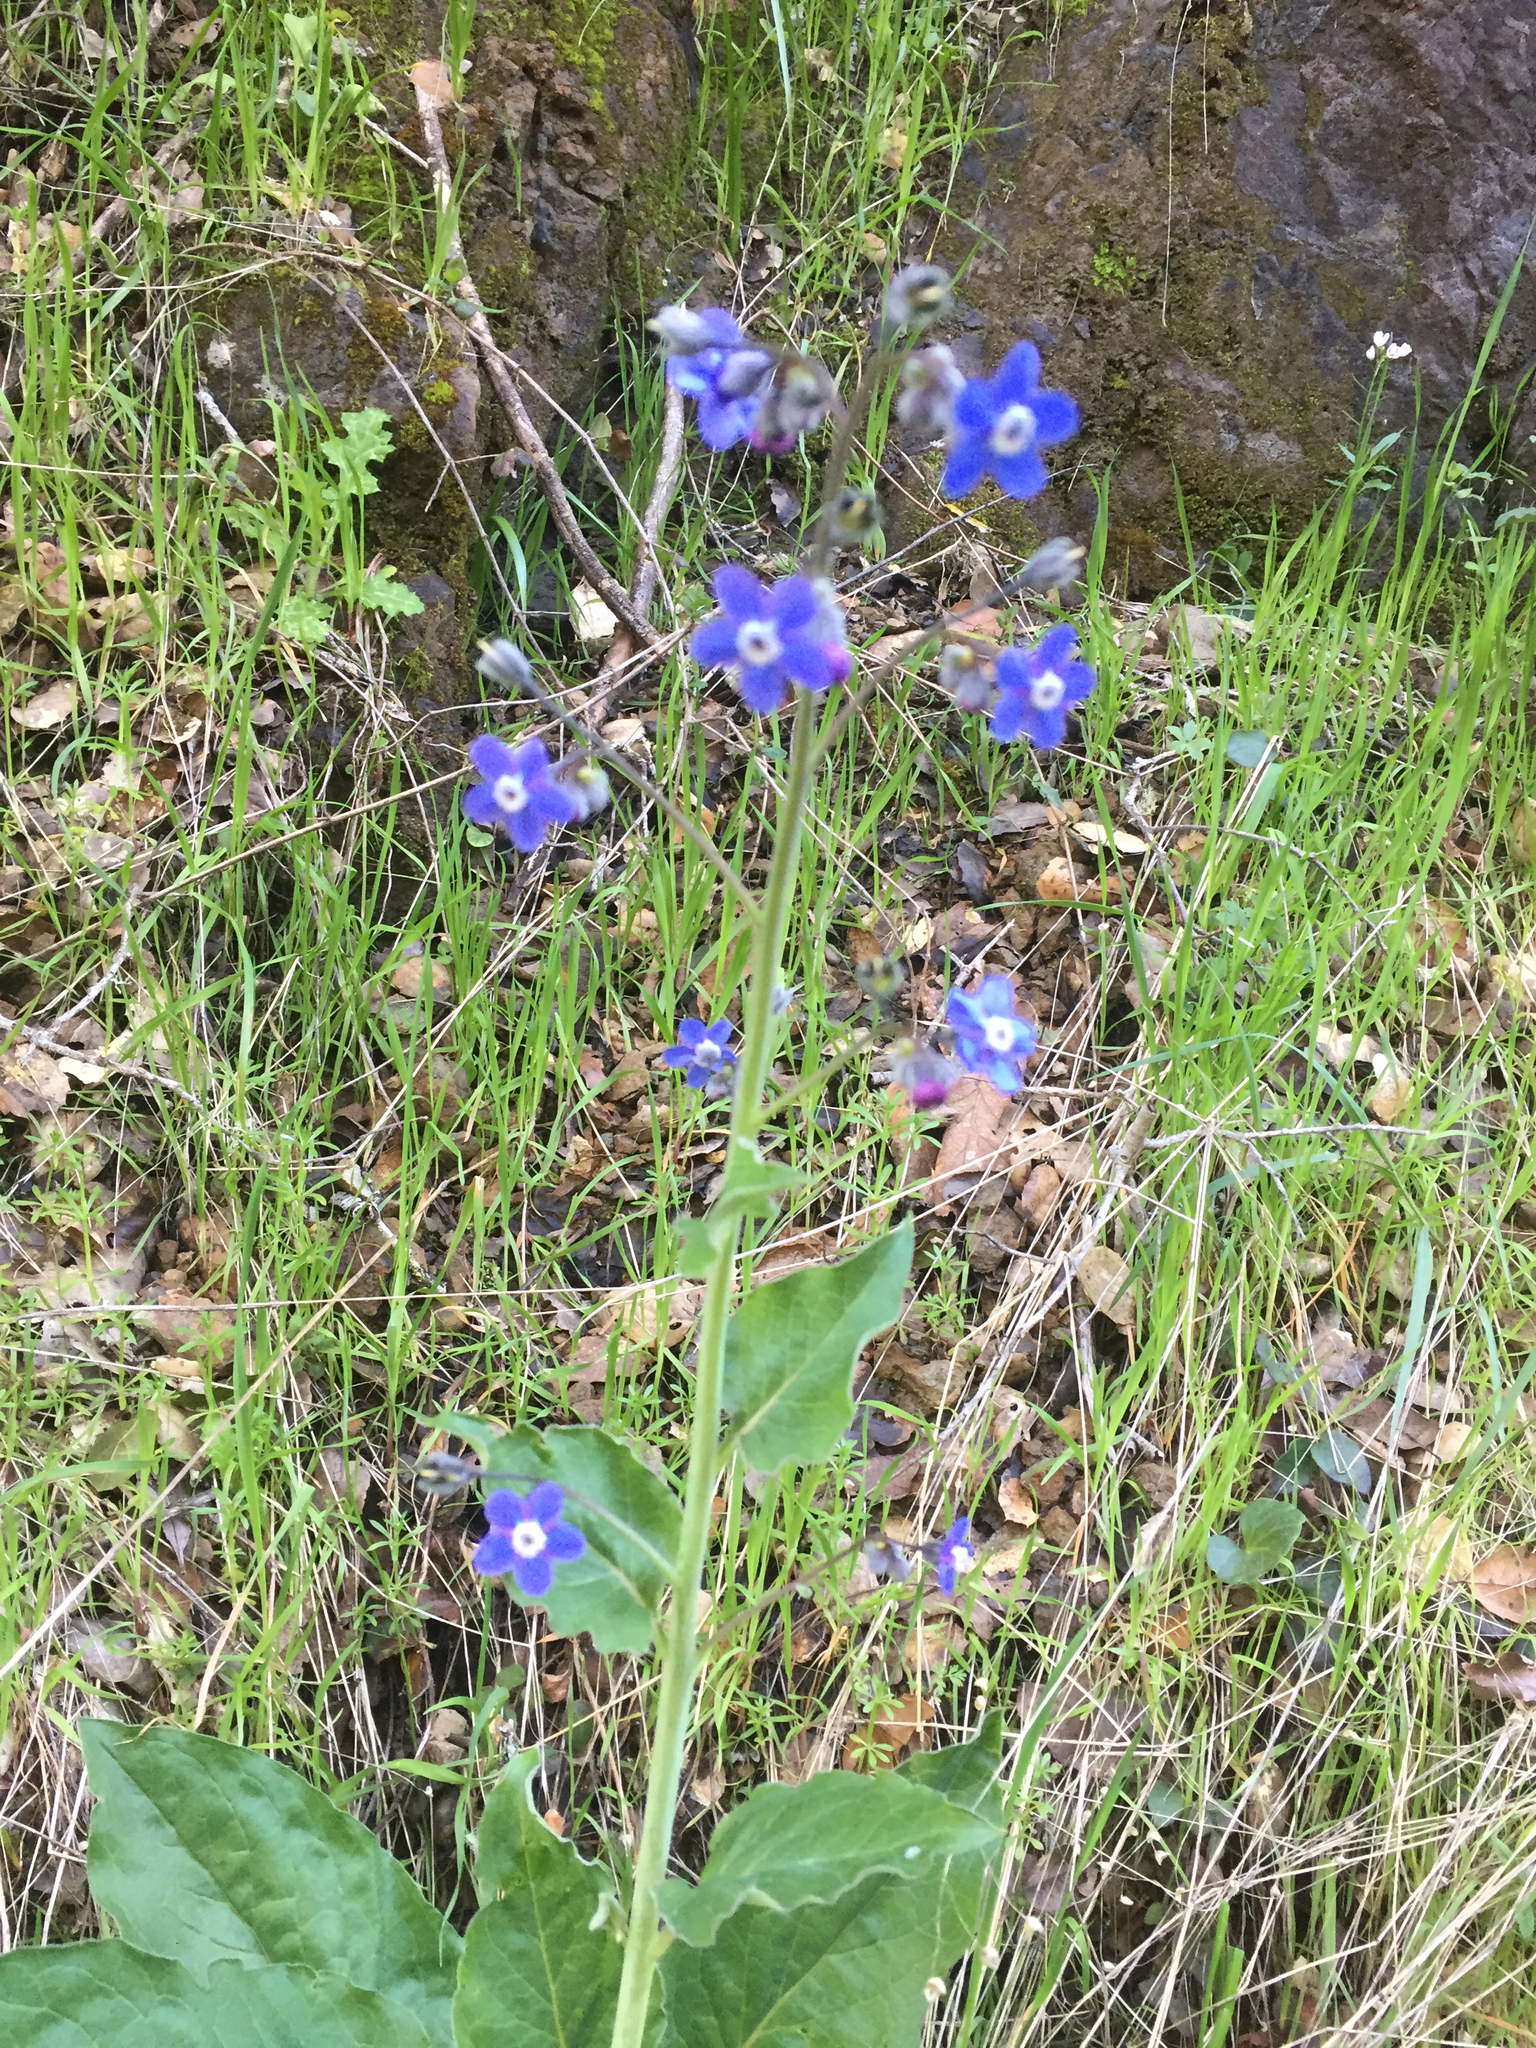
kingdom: Plantae
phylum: Tracheophyta
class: Magnoliopsida
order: Boraginales
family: Boraginaceae
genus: Adelinia
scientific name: Adelinia grande
